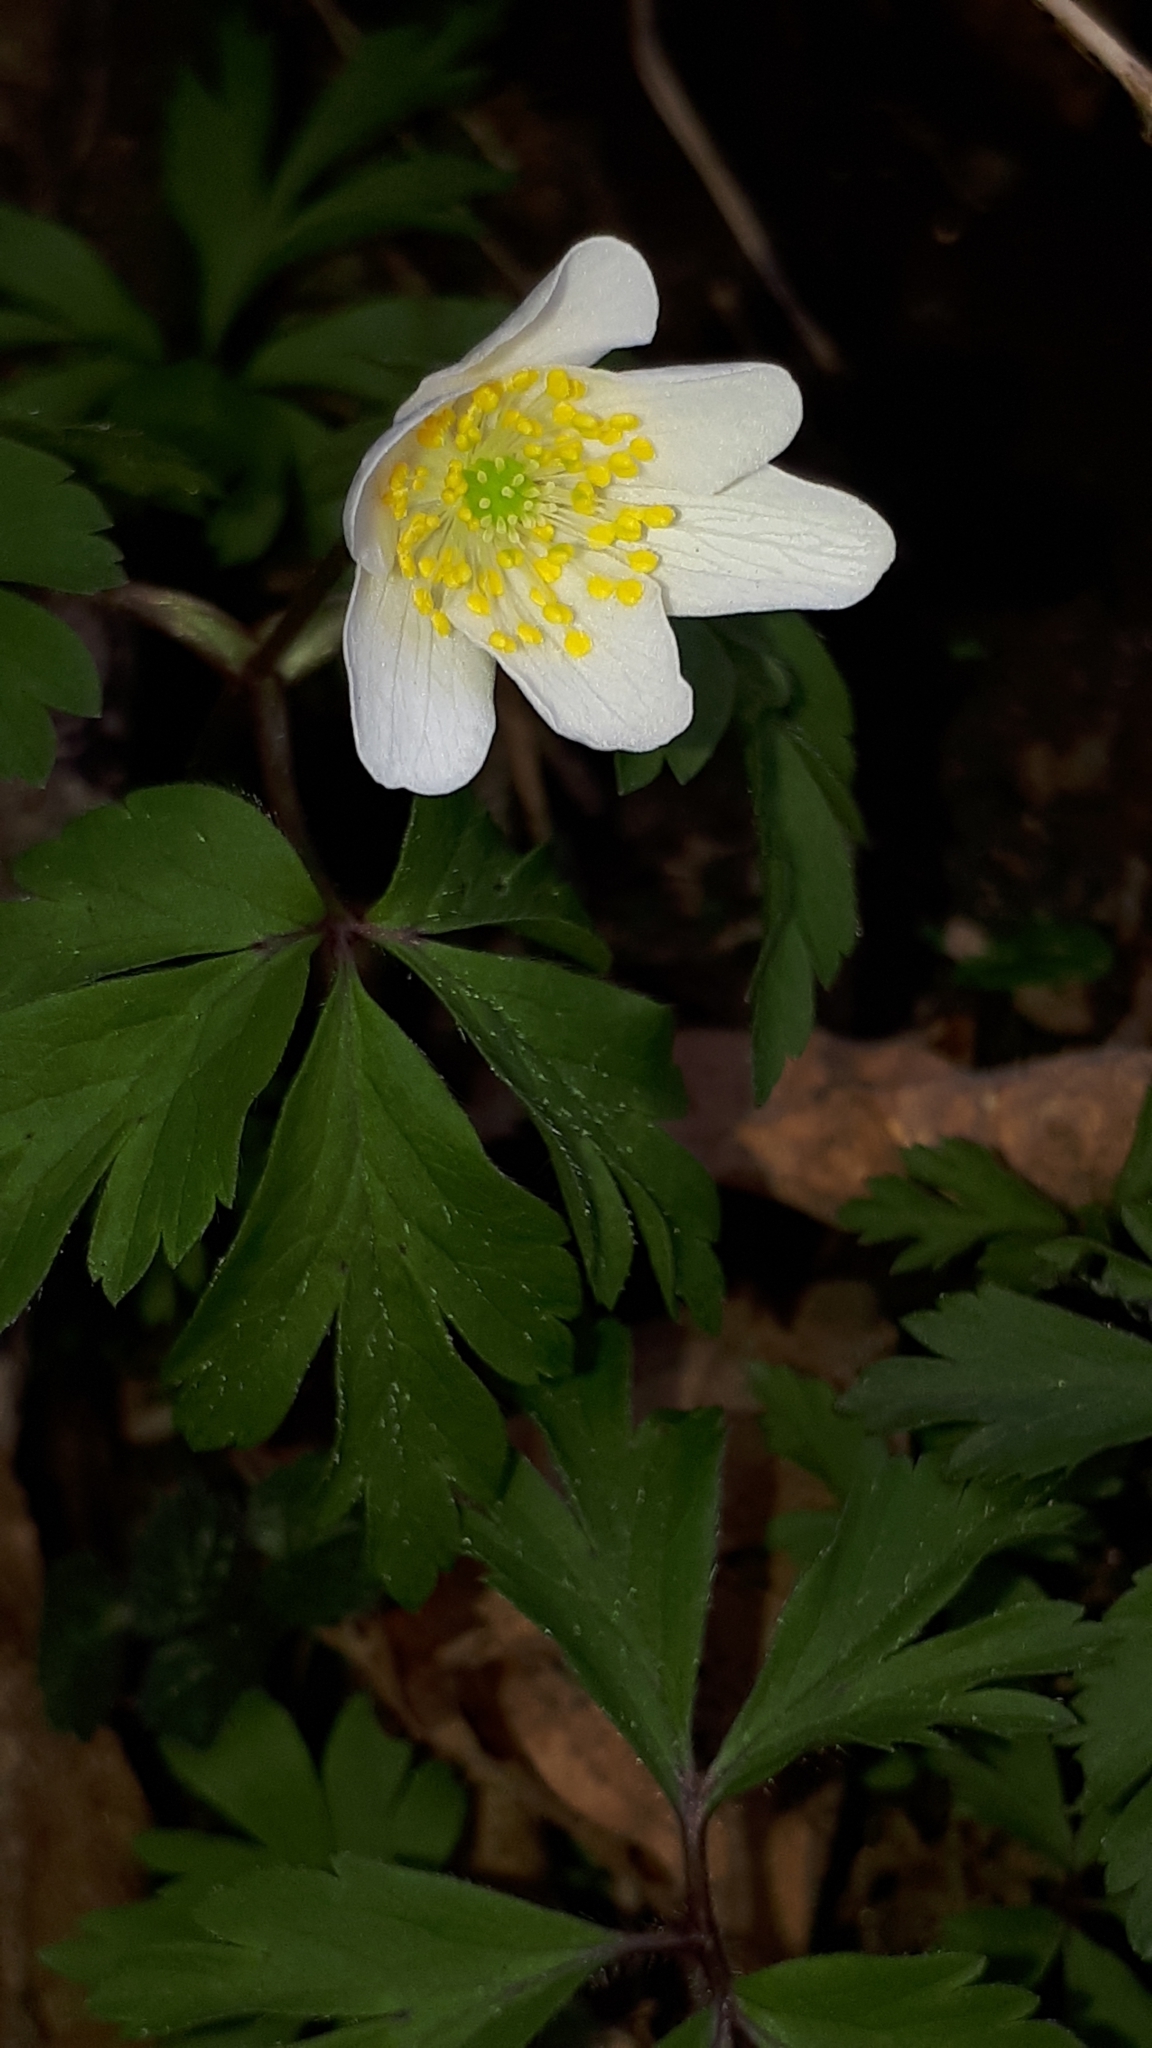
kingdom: Plantae
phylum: Tracheophyta
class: Magnoliopsida
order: Ranunculales
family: Ranunculaceae
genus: Anemone
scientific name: Anemone nemorosa
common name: Wood anemone
